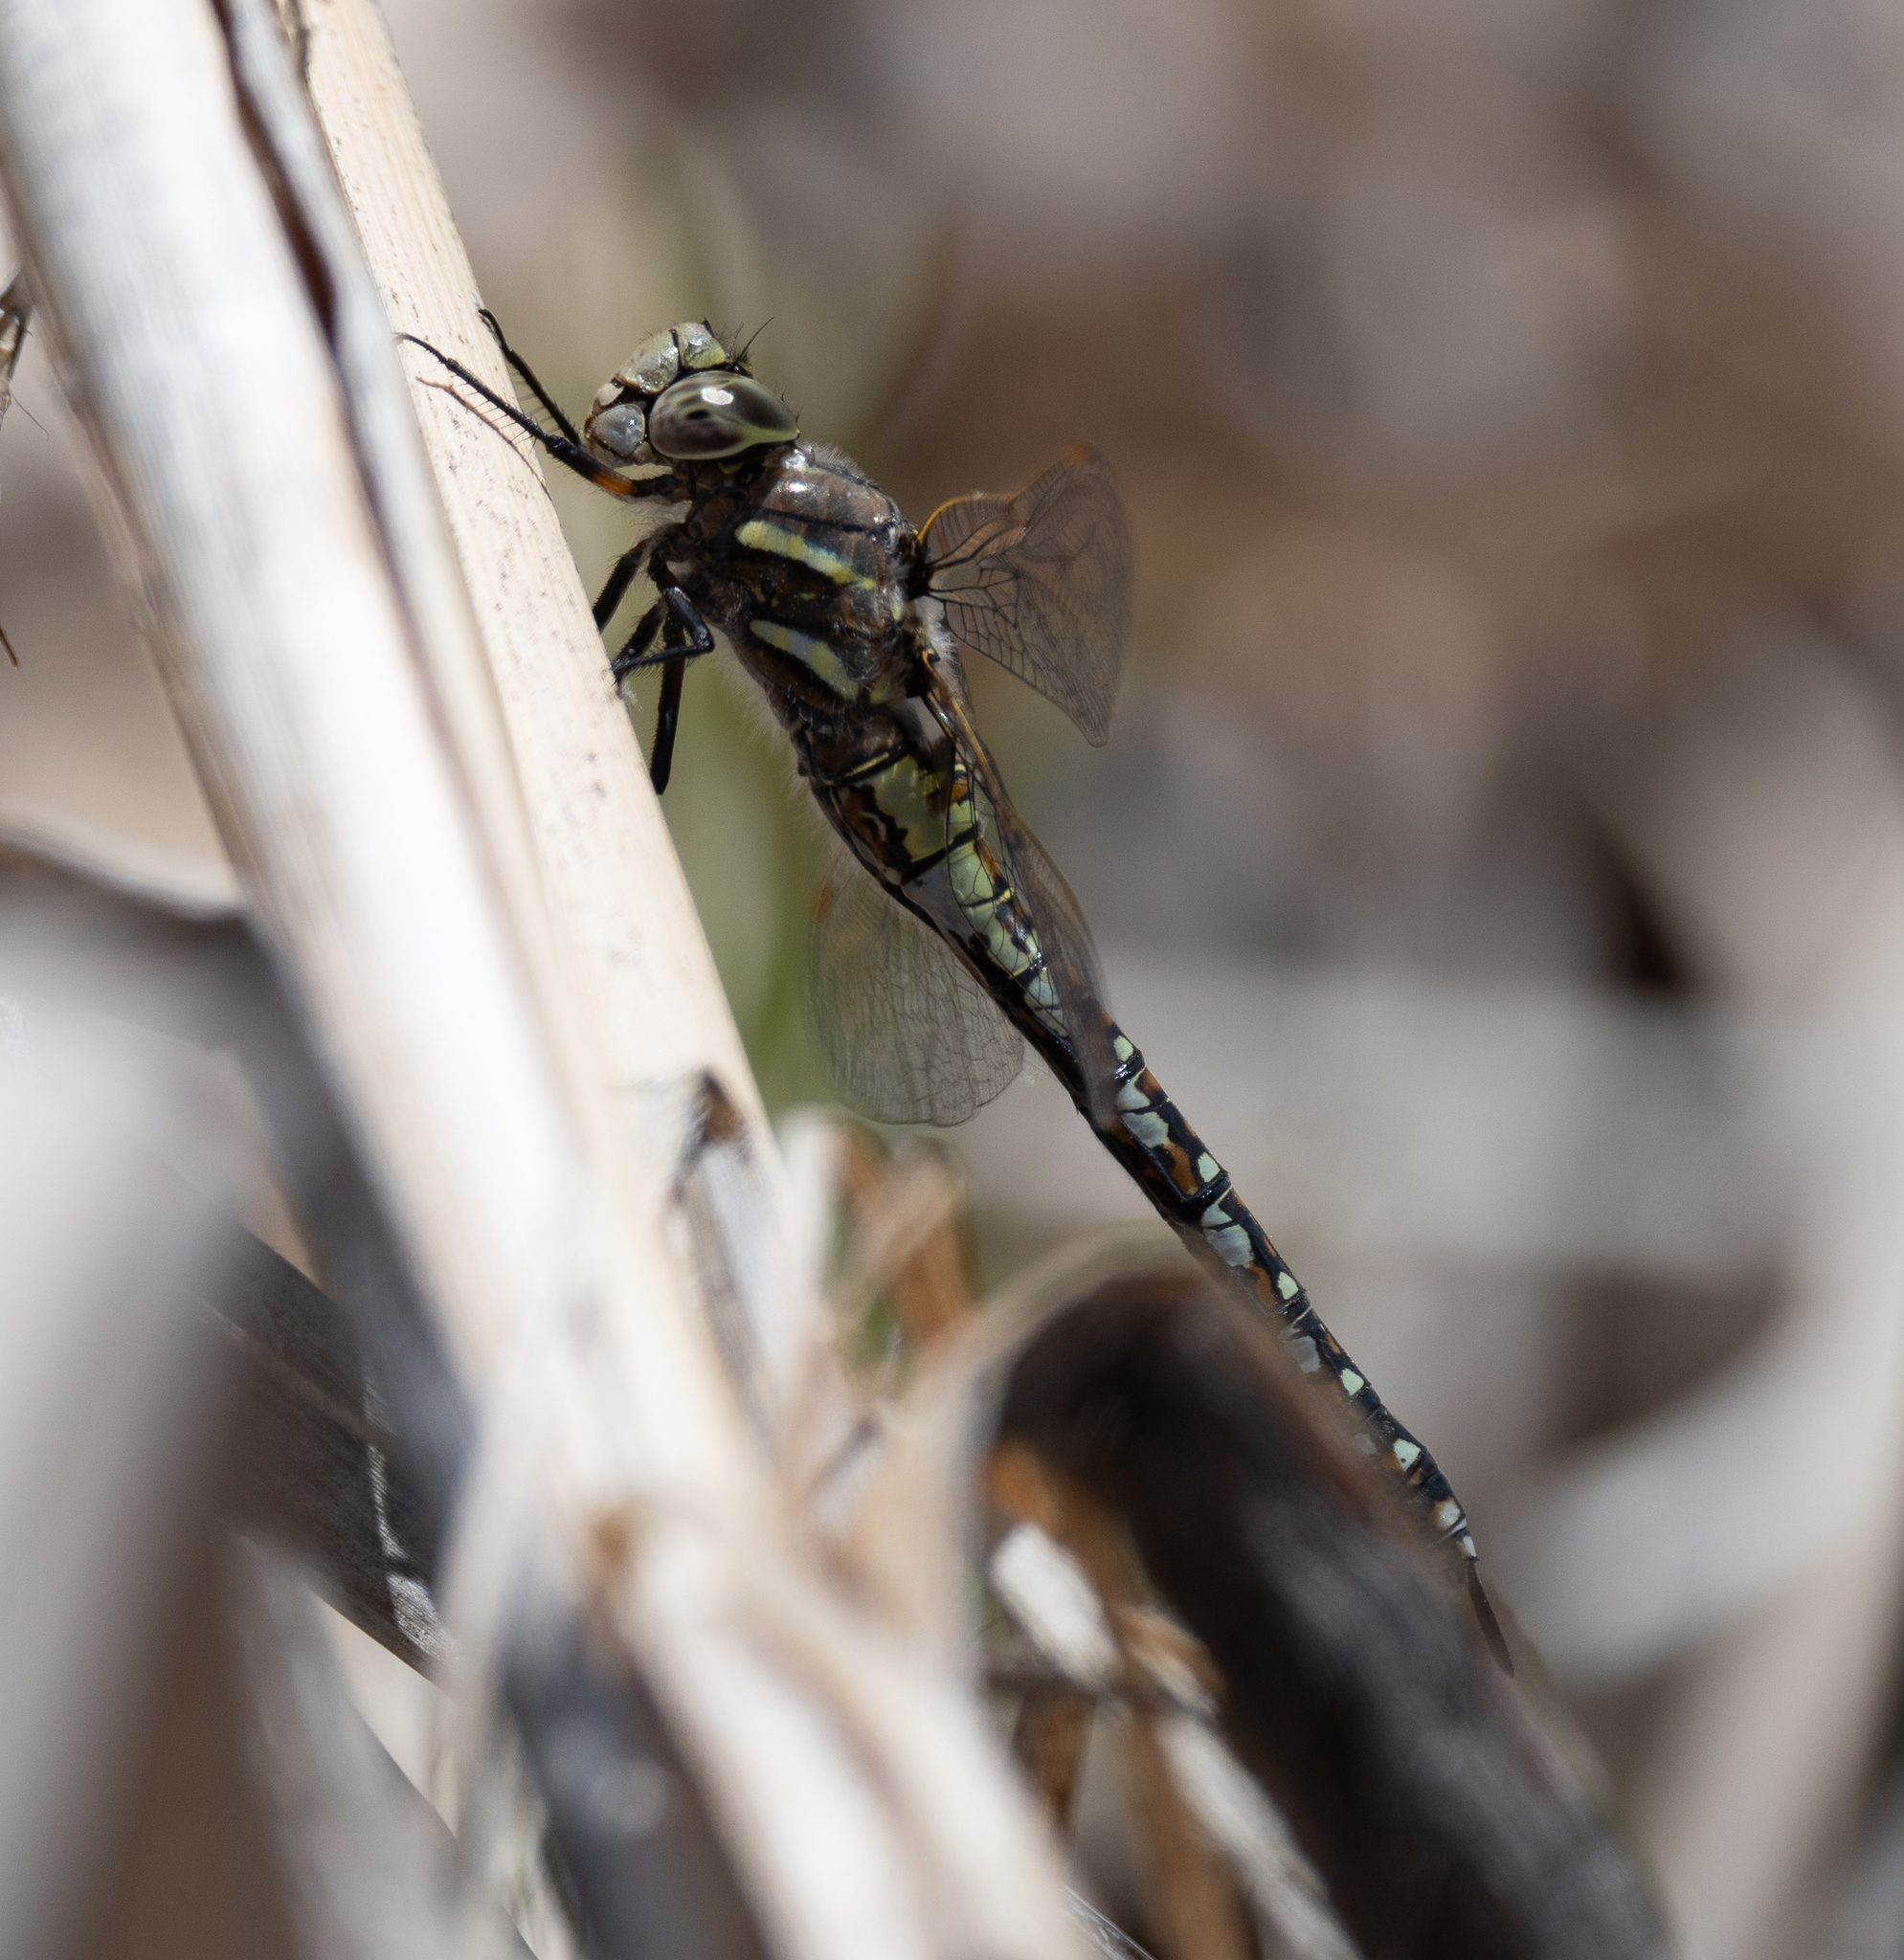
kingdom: Animalia
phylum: Arthropoda
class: Insecta
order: Odonata
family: Aeshnidae
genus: Rhionaeschna
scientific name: Rhionaeschna californica
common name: California darner
